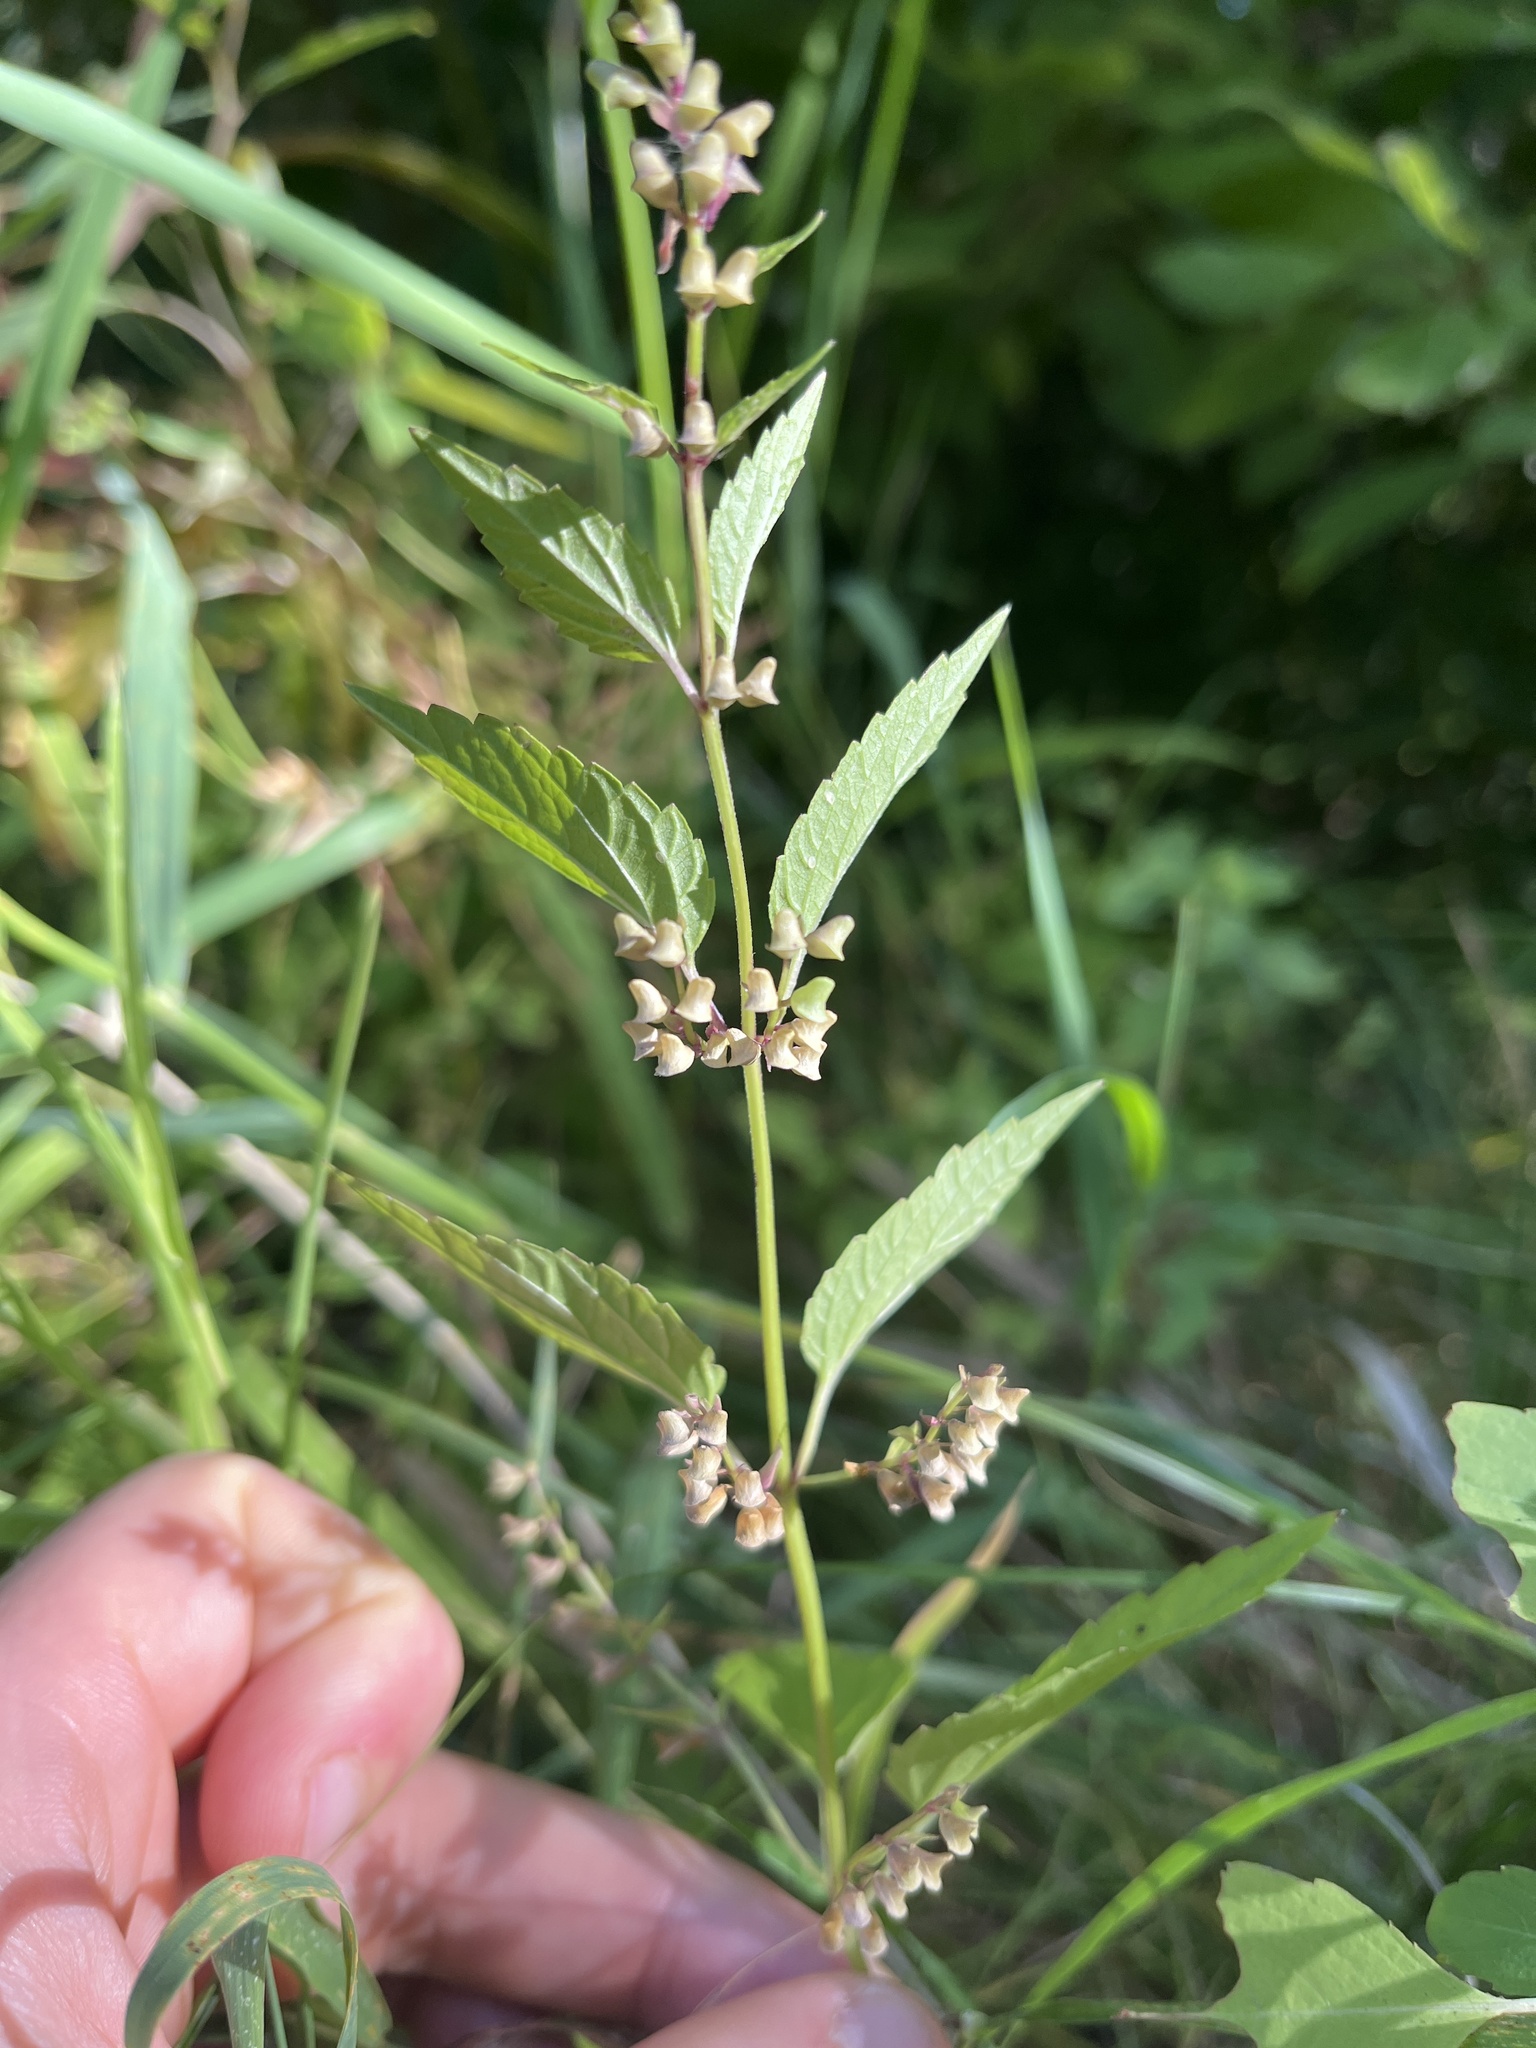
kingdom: Plantae
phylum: Tracheophyta
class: Magnoliopsida
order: Lamiales
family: Lamiaceae
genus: Scutellaria
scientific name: Scutellaria lateriflora
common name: Blue skullcap
